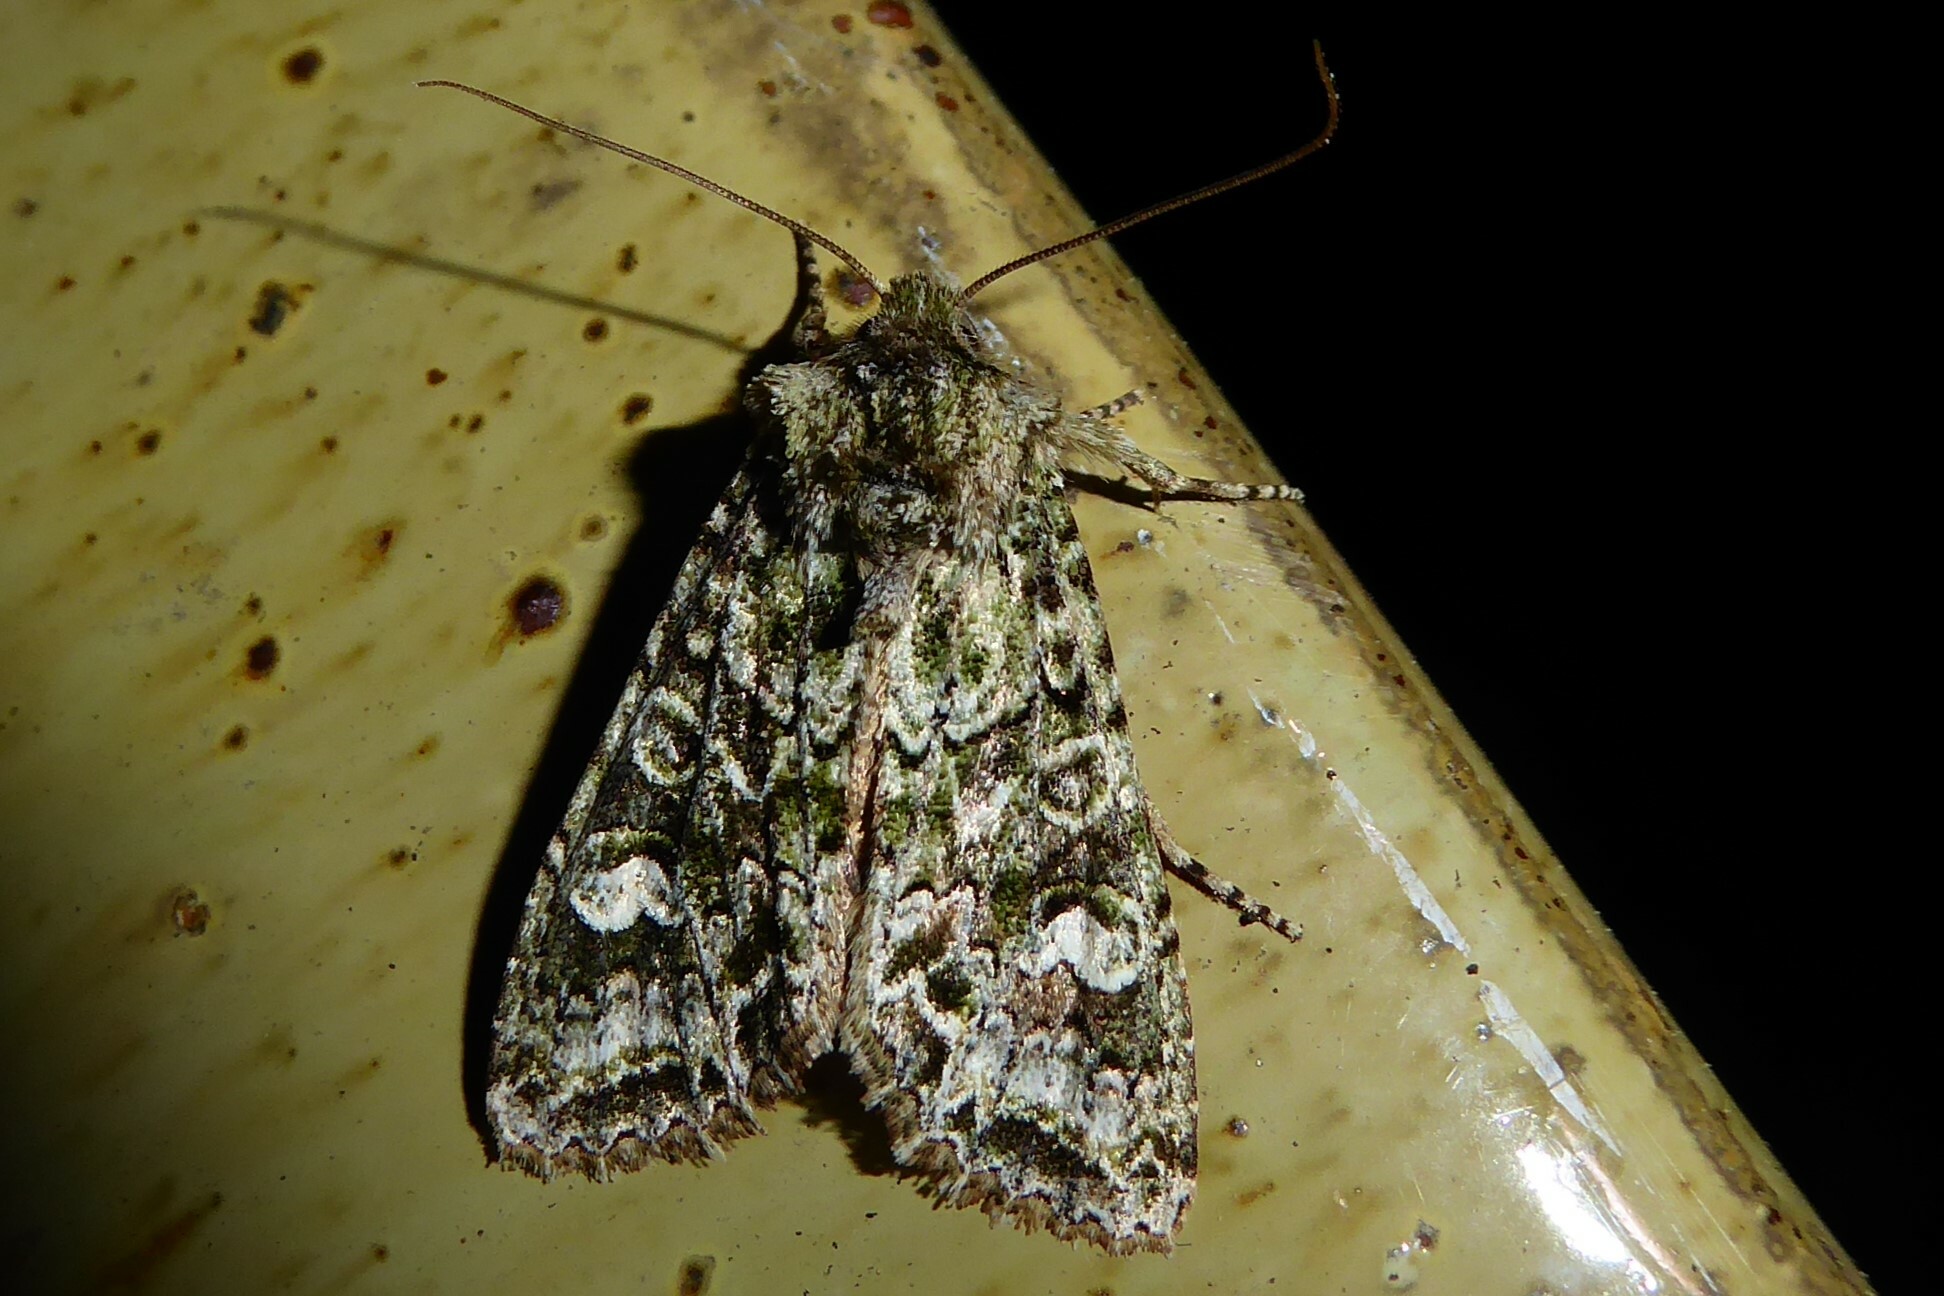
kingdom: Animalia
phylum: Arthropoda
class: Insecta
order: Lepidoptera
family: Noctuidae
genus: Ichneutica
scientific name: Ichneutica
